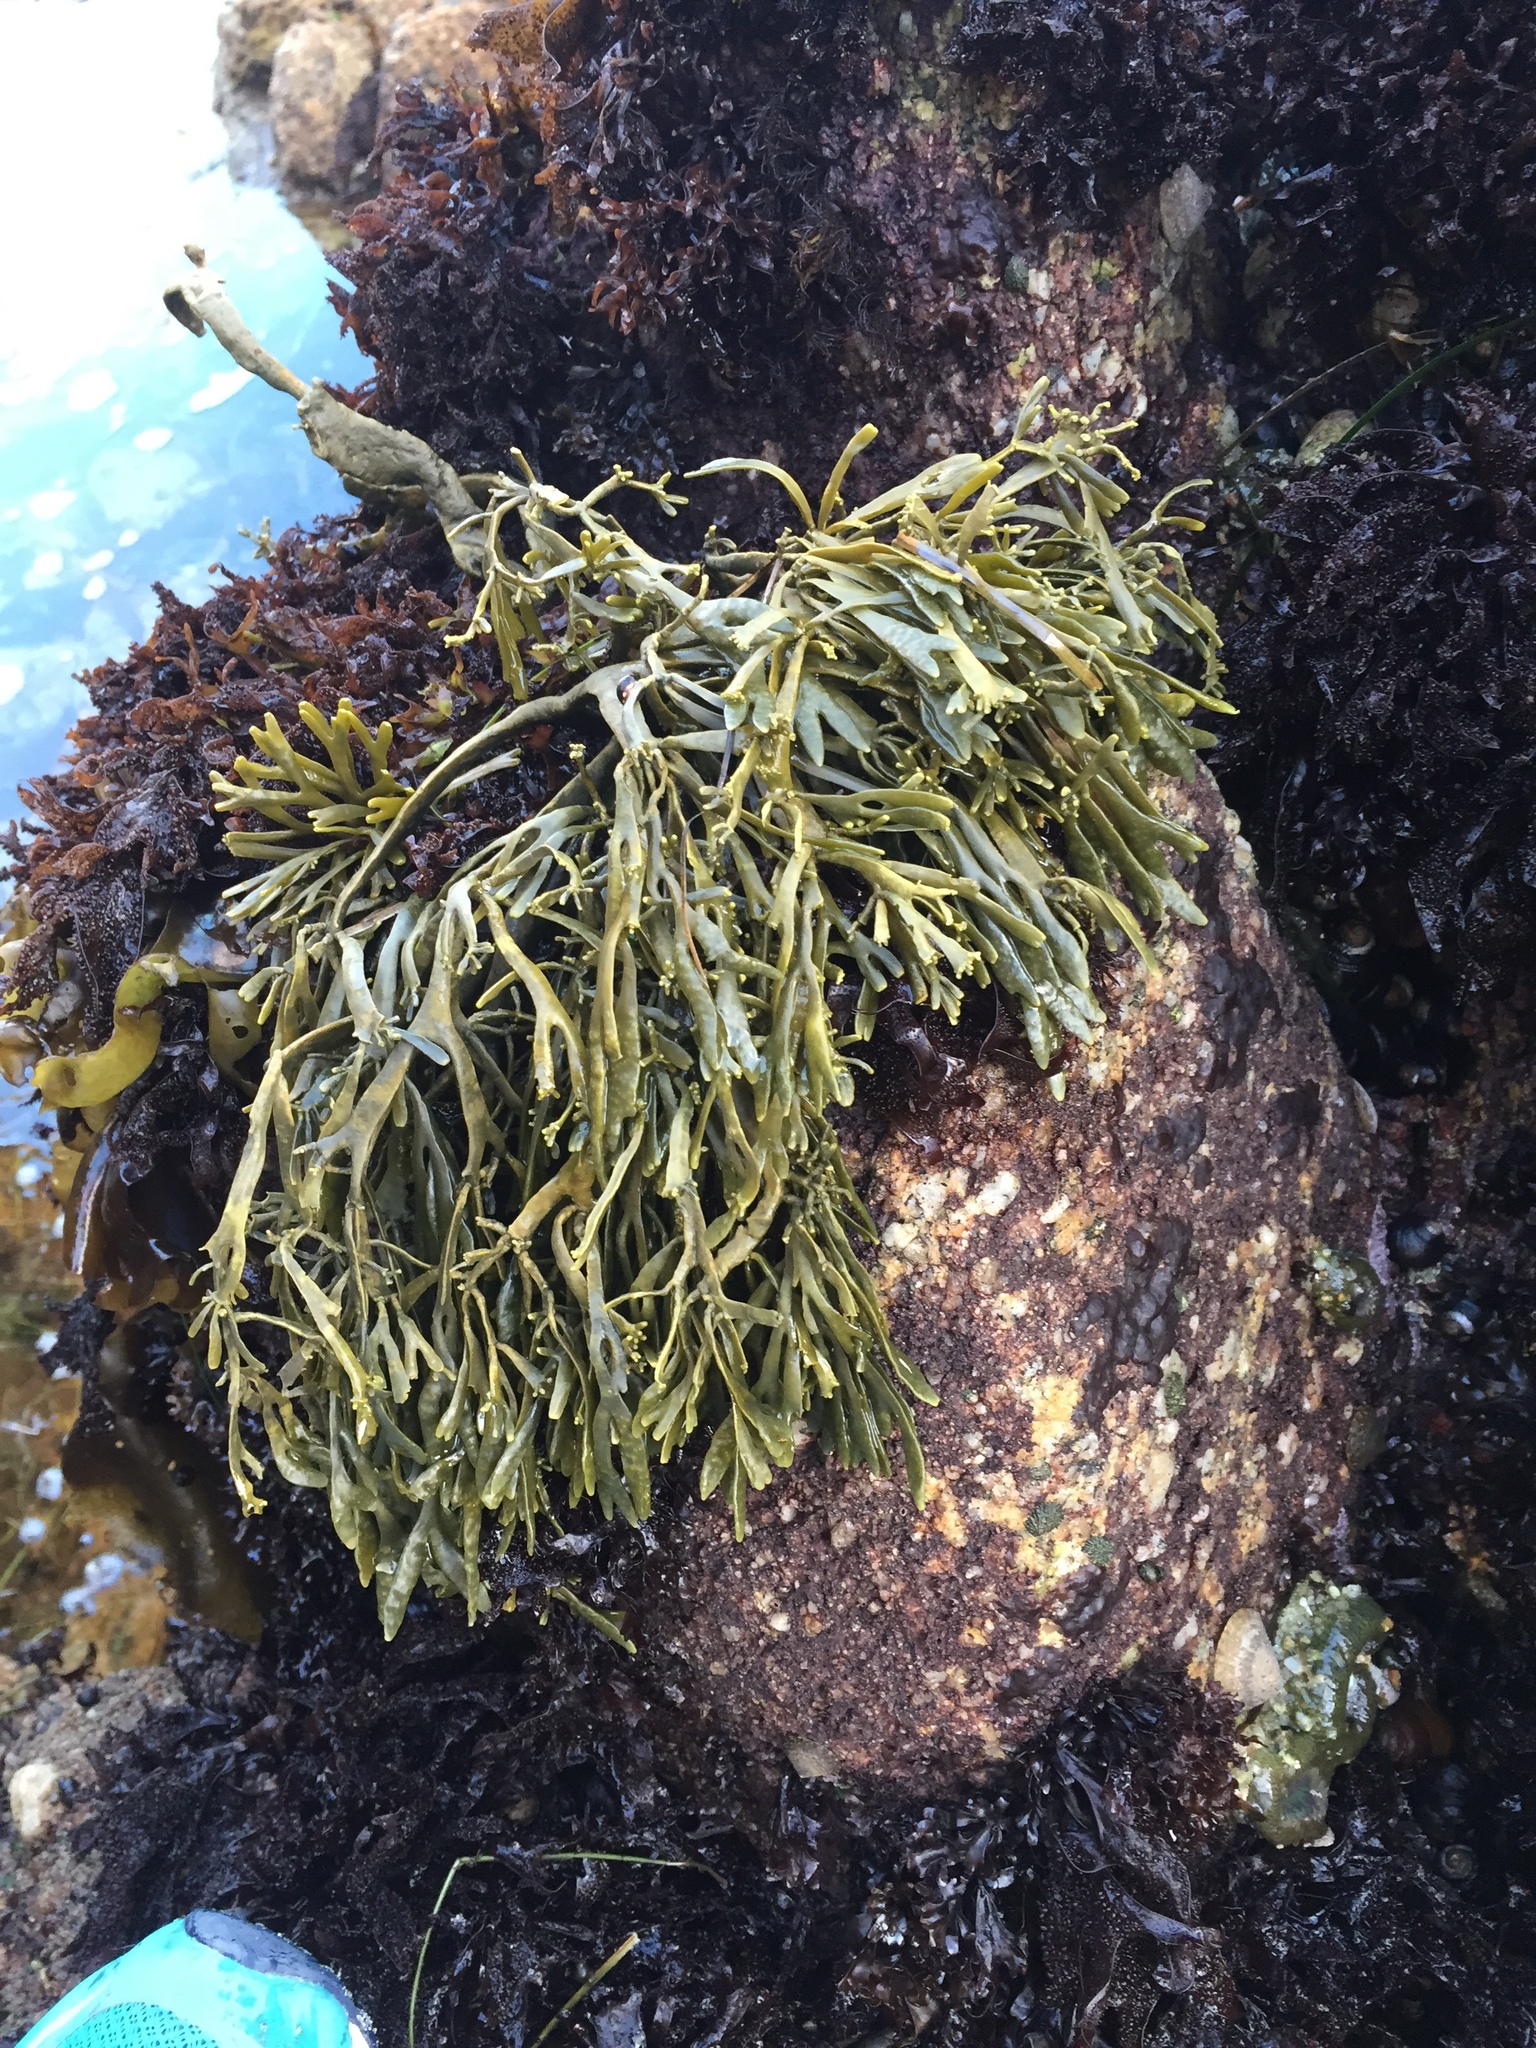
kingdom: Chromista
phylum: Ochrophyta
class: Phaeophyceae
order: Fucales
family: Fucaceae
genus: Silvetia
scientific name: Silvetia
